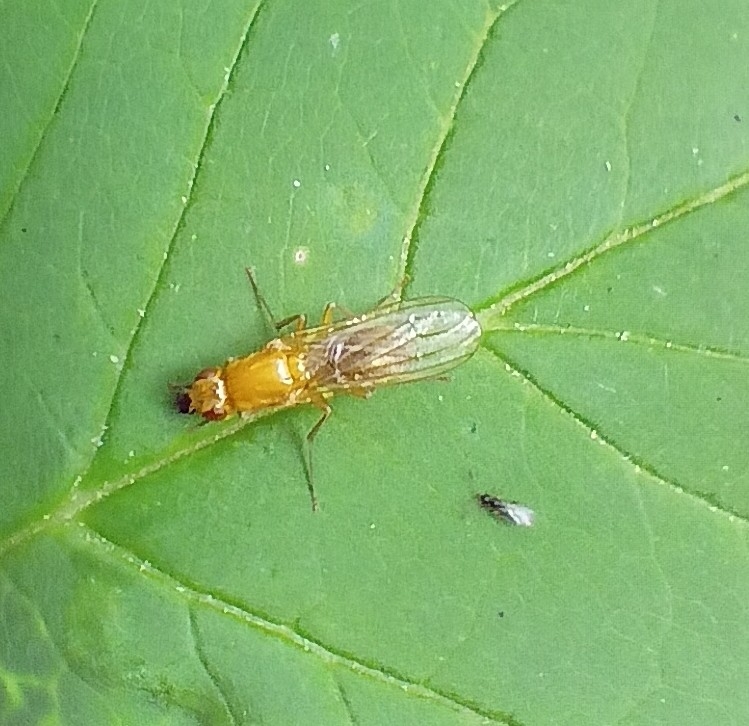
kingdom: Animalia
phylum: Arthropoda
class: Insecta
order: Diptera
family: Psilidae
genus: Psila
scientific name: Psila
